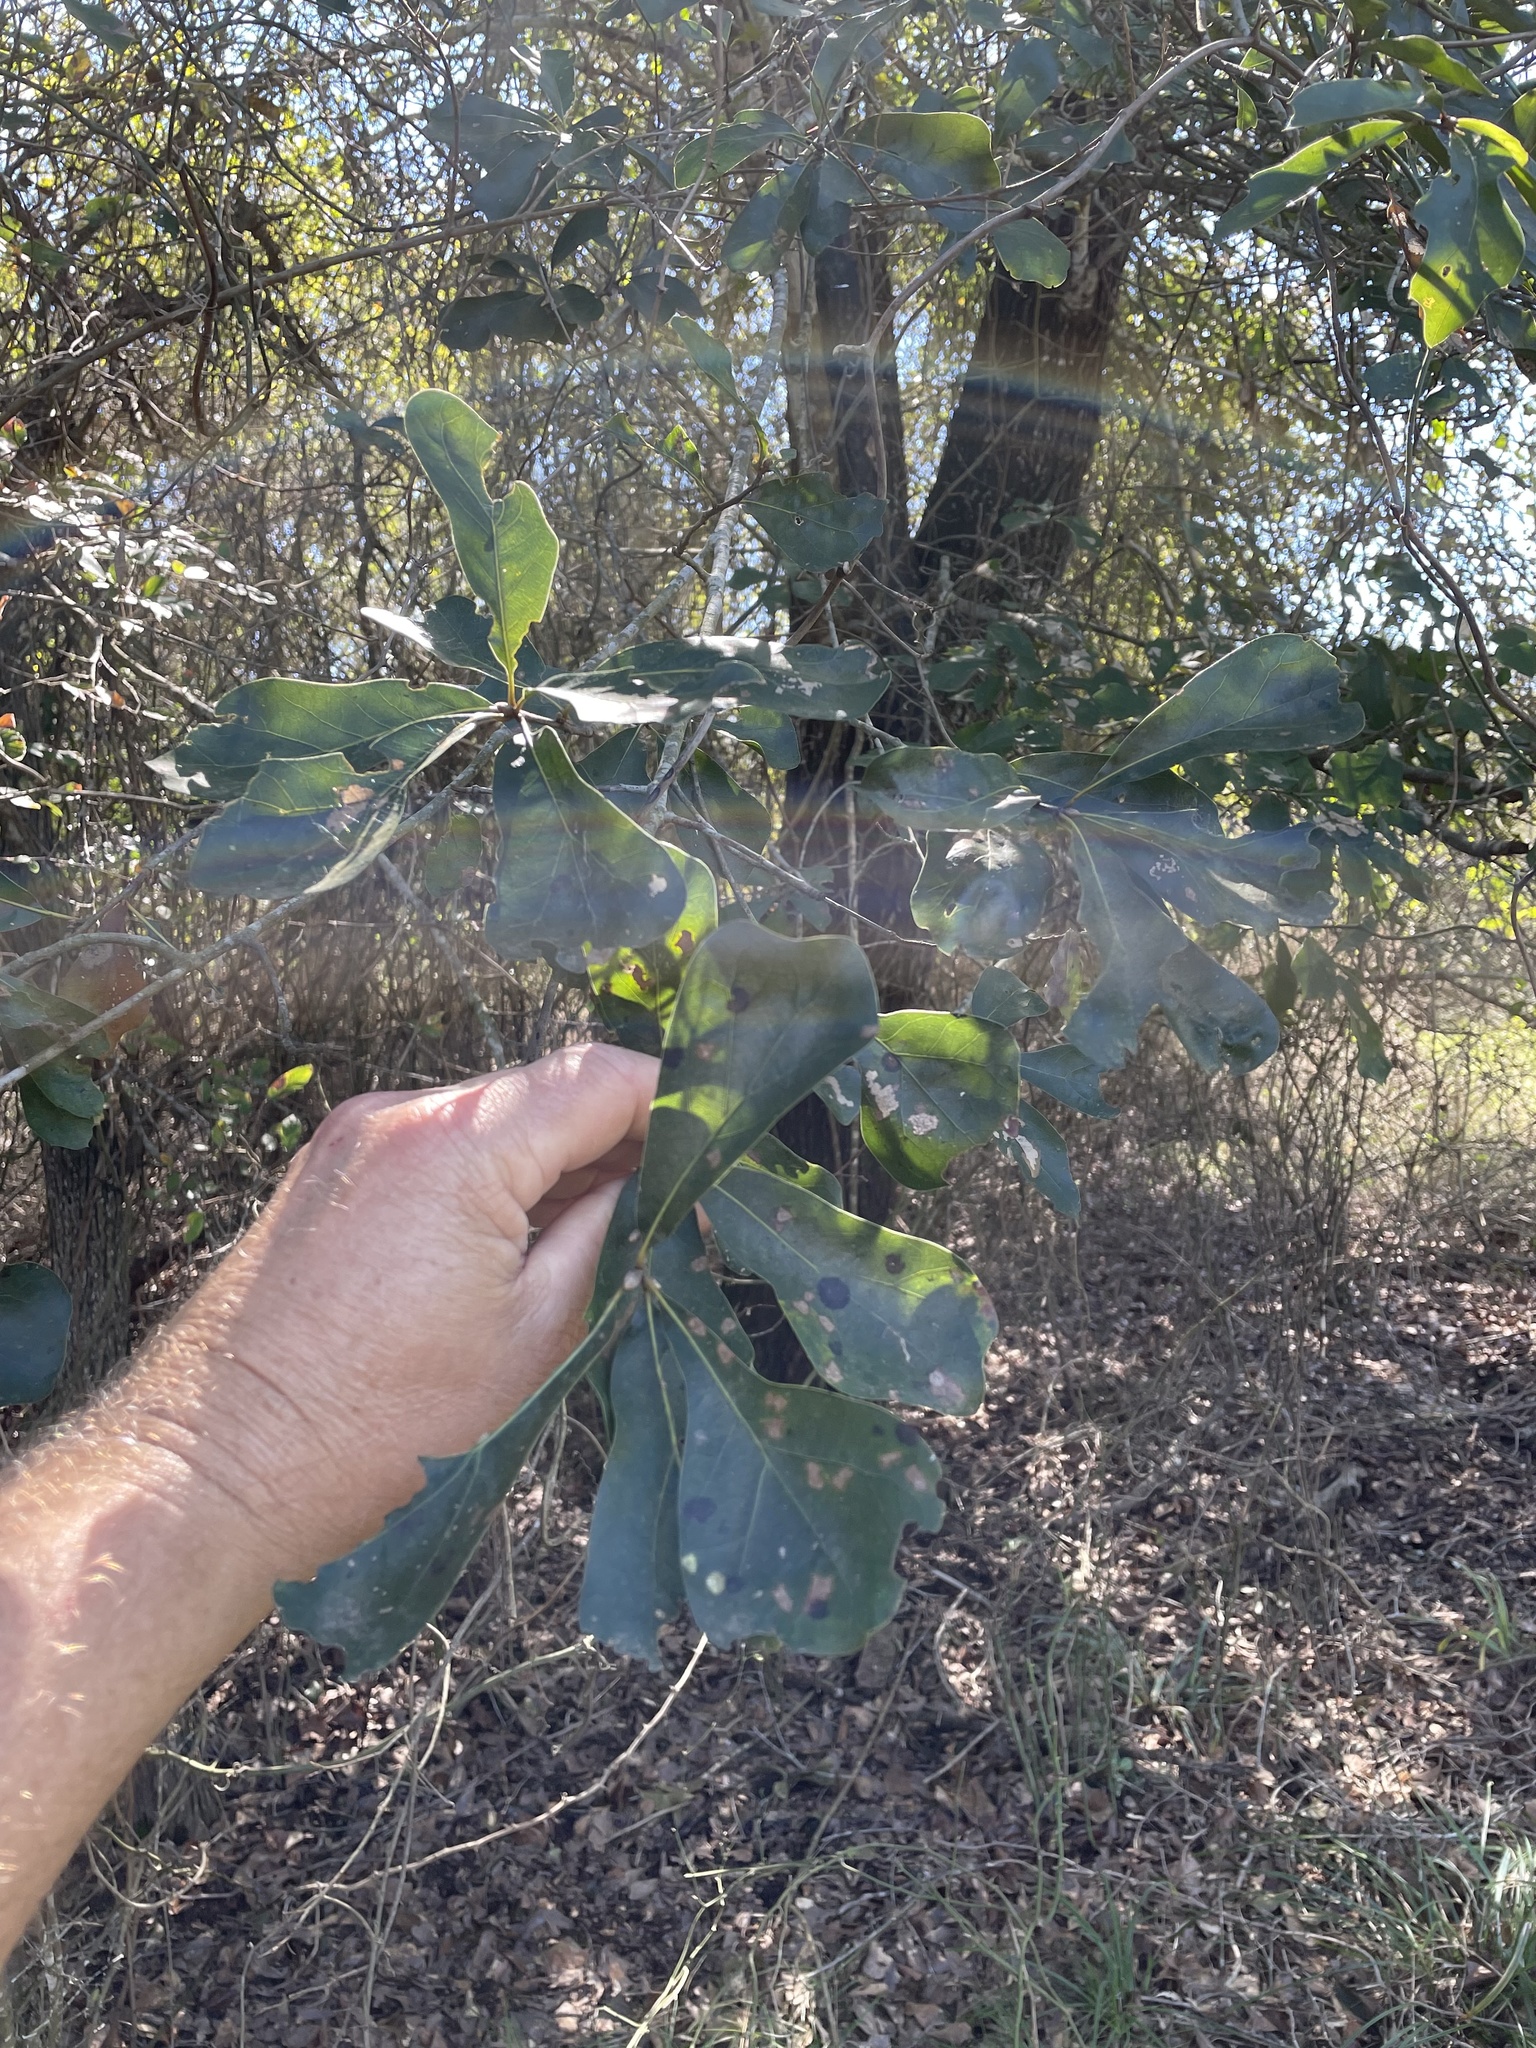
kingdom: Plantae
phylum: Tracheophyta
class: Magnoliopsida
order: Fagales
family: Fagaceae
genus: Quercus
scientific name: Quercus nigra
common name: Water oak
